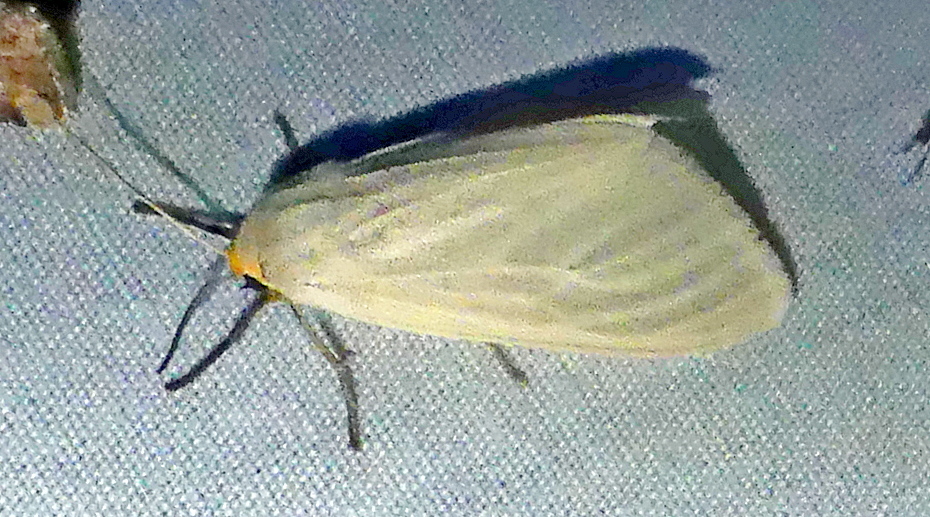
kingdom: Animalia
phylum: Arthropoda
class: Insecta
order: Lepidoptera
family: Erebidae
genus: Cycnia
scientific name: Cycnia tenera
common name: Delicate cycnia moth
